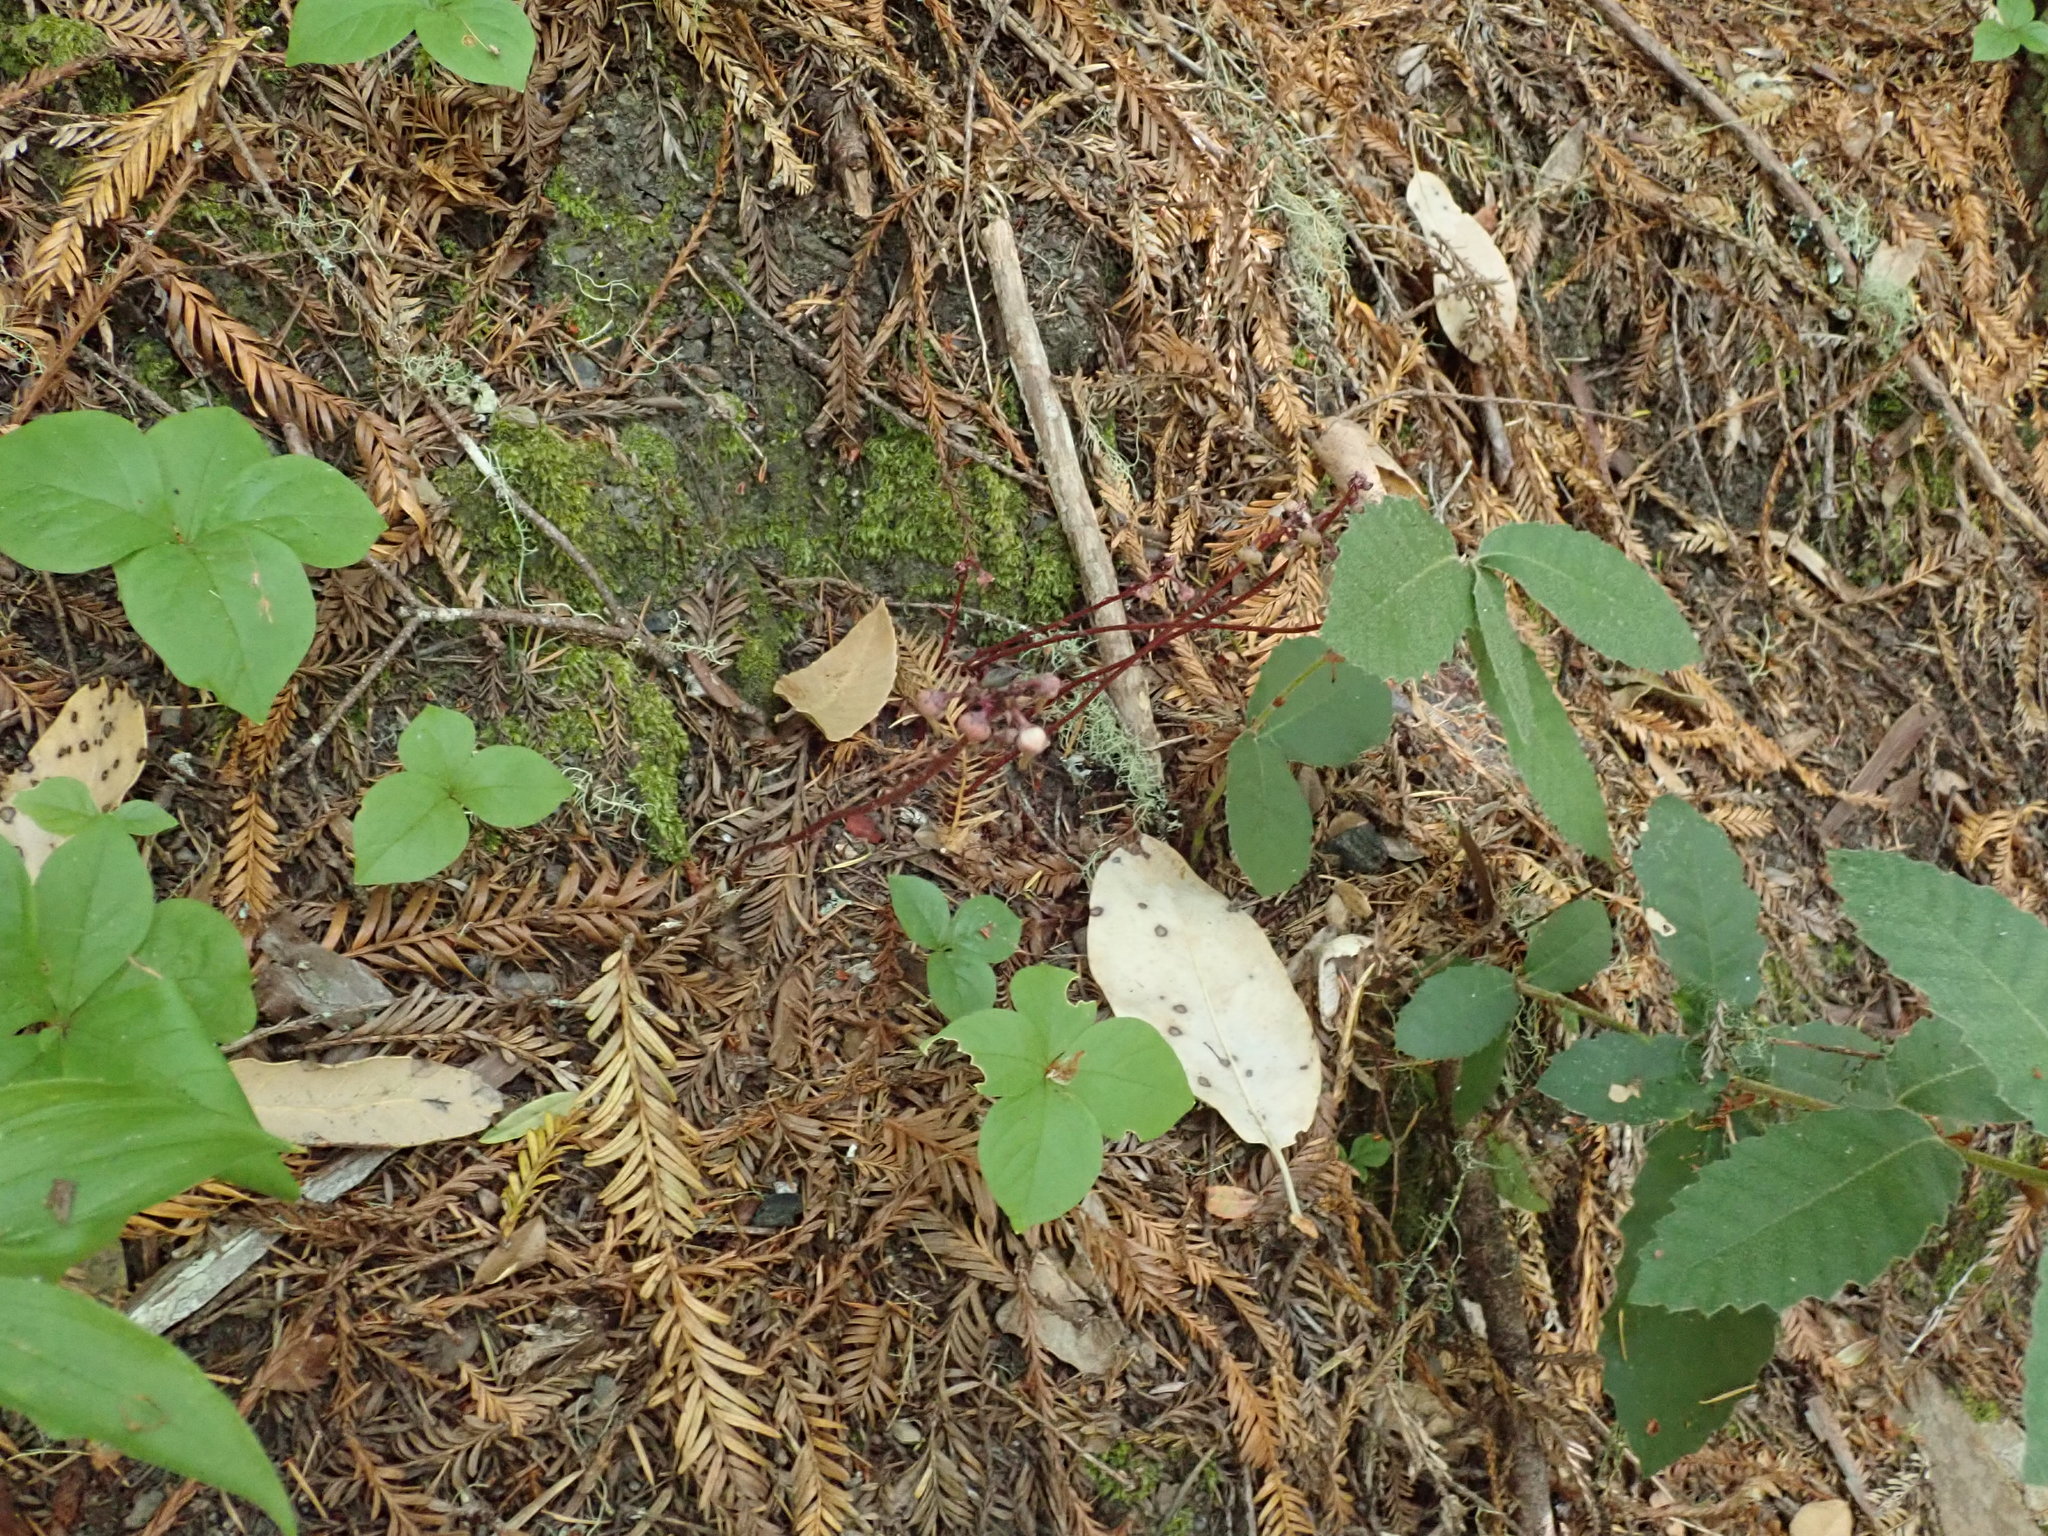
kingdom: Plantae
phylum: Tracheophyta
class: Magnoliopsida
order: Ericales
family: Ericaceae
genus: Pyrola
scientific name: Pyrola aphylla
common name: Leafless wintergreen
